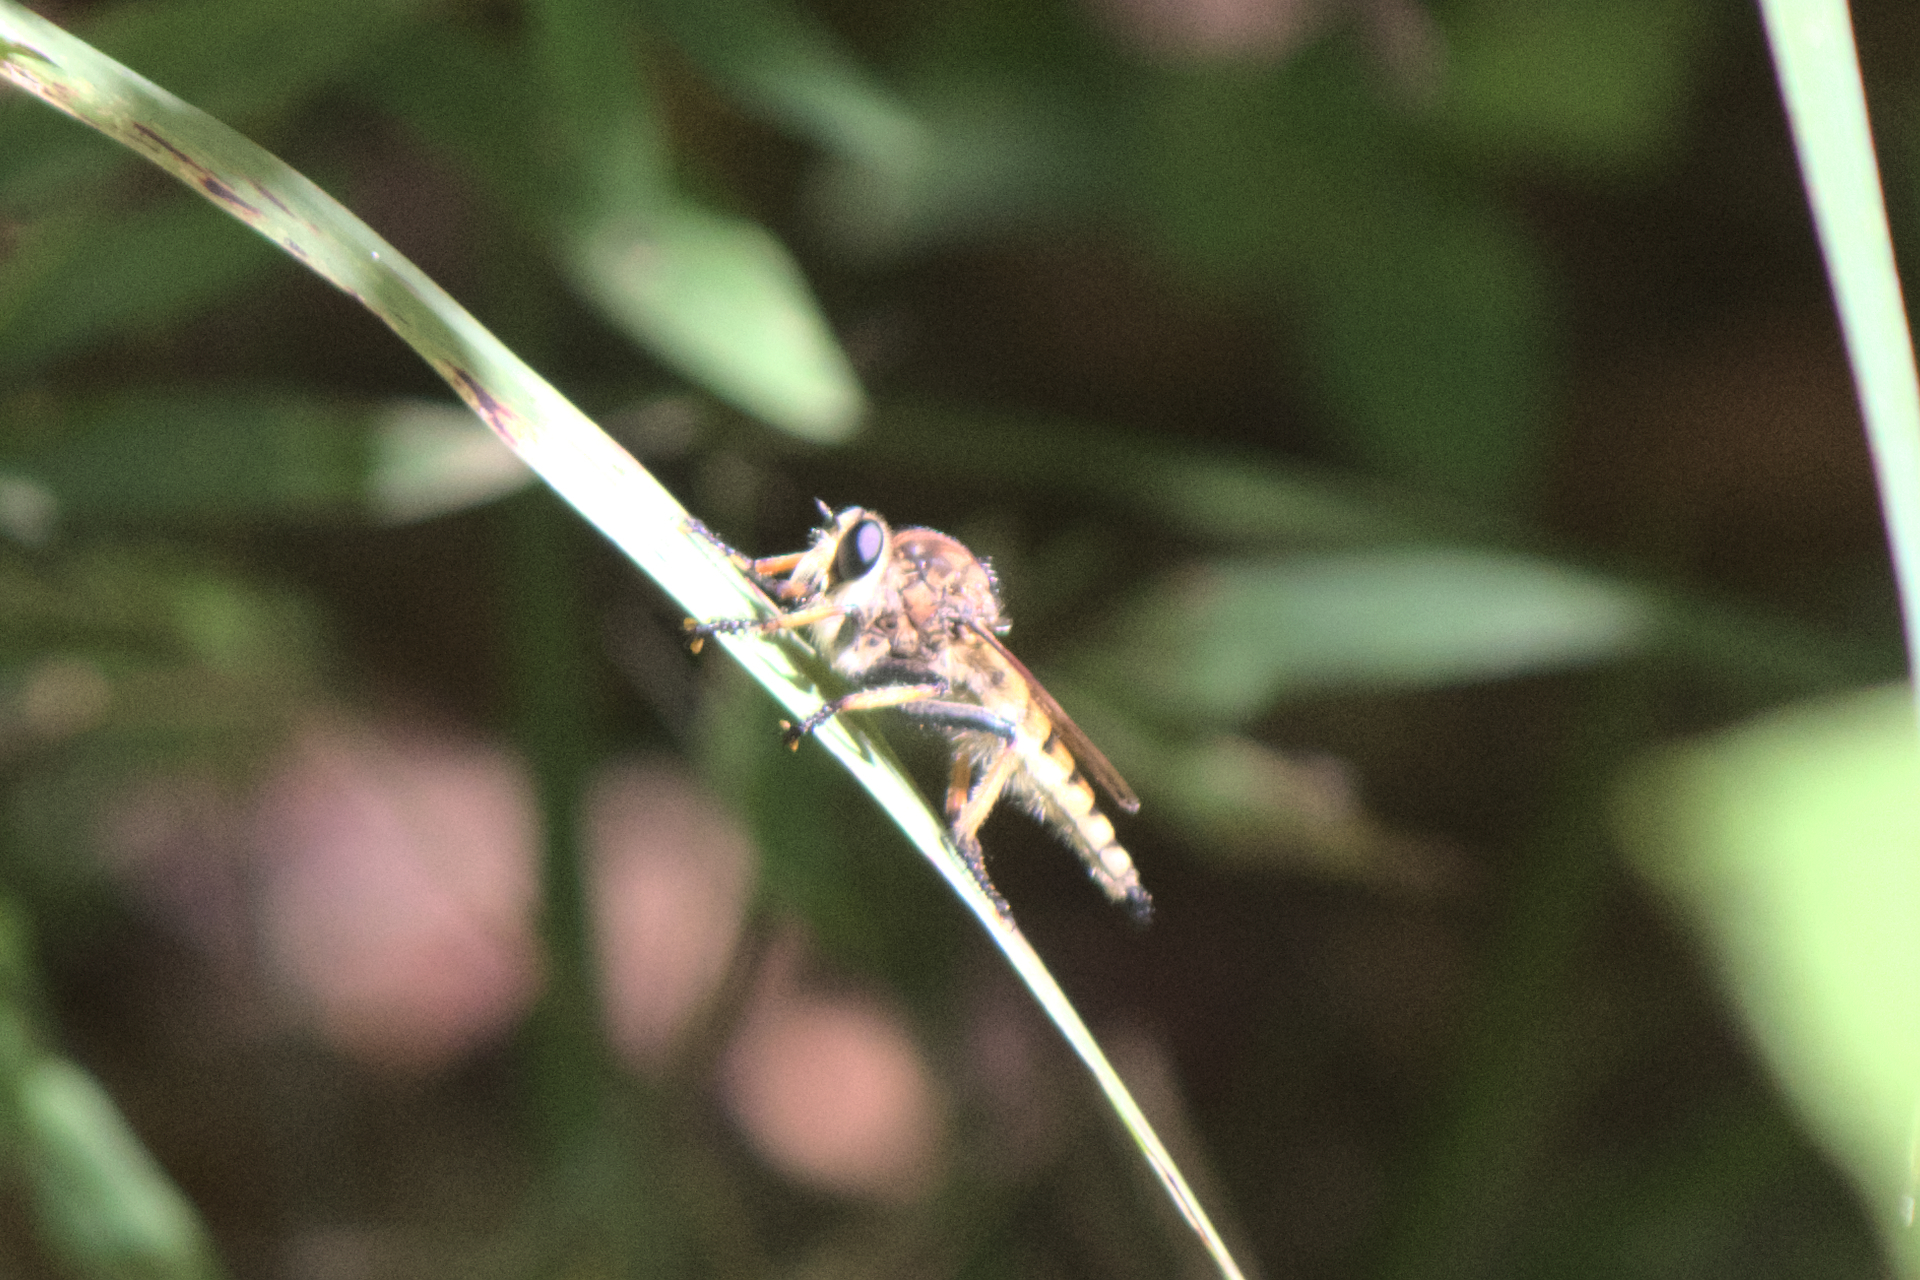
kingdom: Animalia
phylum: Arthropoda
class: Insecta
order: Diptera
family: Asilidae
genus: Promachus
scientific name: Promachus rufipes
